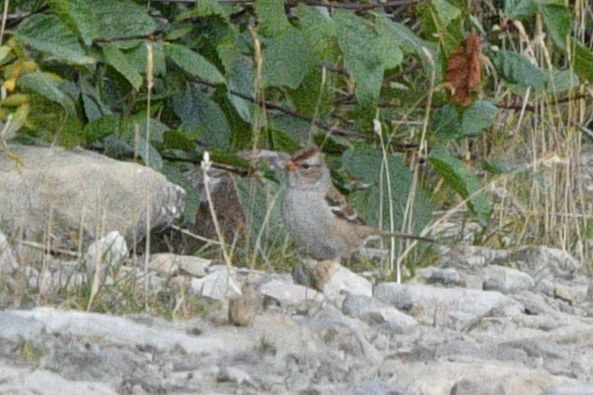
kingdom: Animalia
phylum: Chordata
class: Aves
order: Passeriformes
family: Passerellidae
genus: Zonotrichia
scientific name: Zonotrichia leucophrys
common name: White-crowned sparrow
